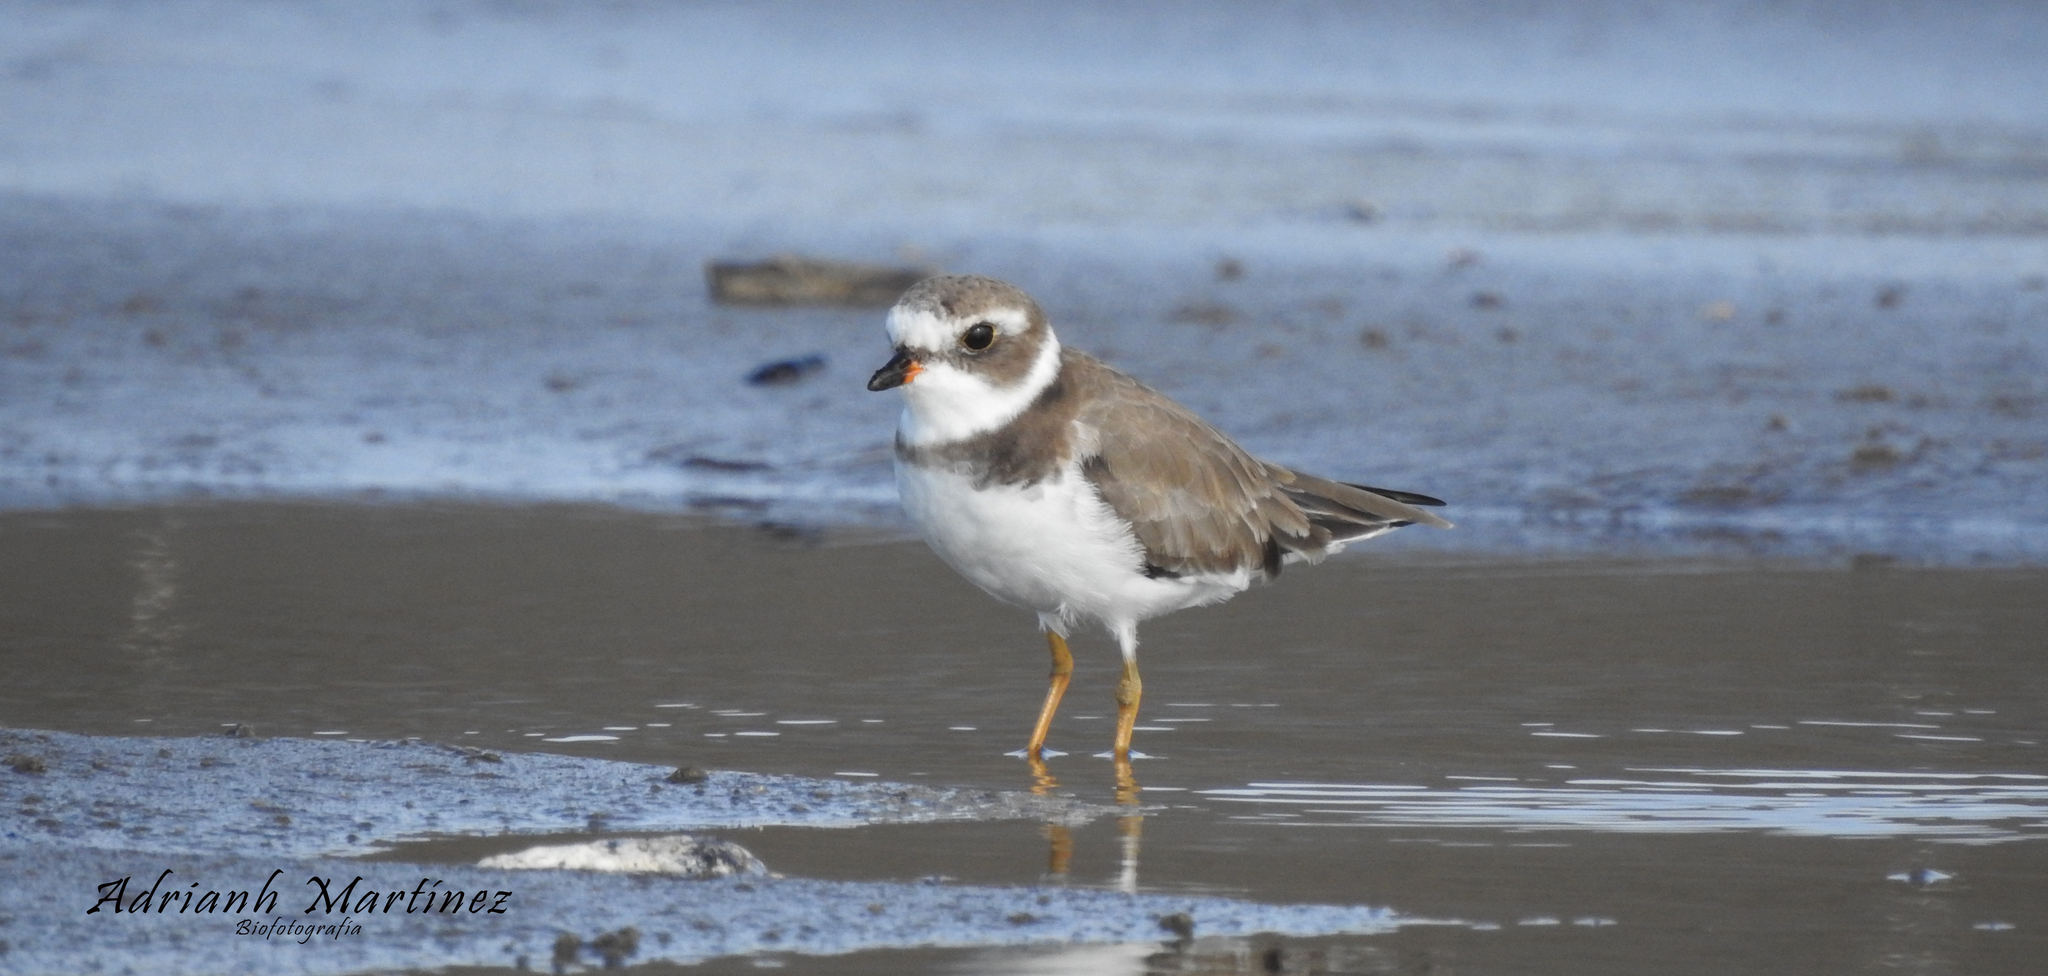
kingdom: Animalia
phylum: Chordata
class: Aves
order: Charadriiformes
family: Charadriidae
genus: Charadrius
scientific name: Charadrius semipalmatus
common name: Semipalmated plover
